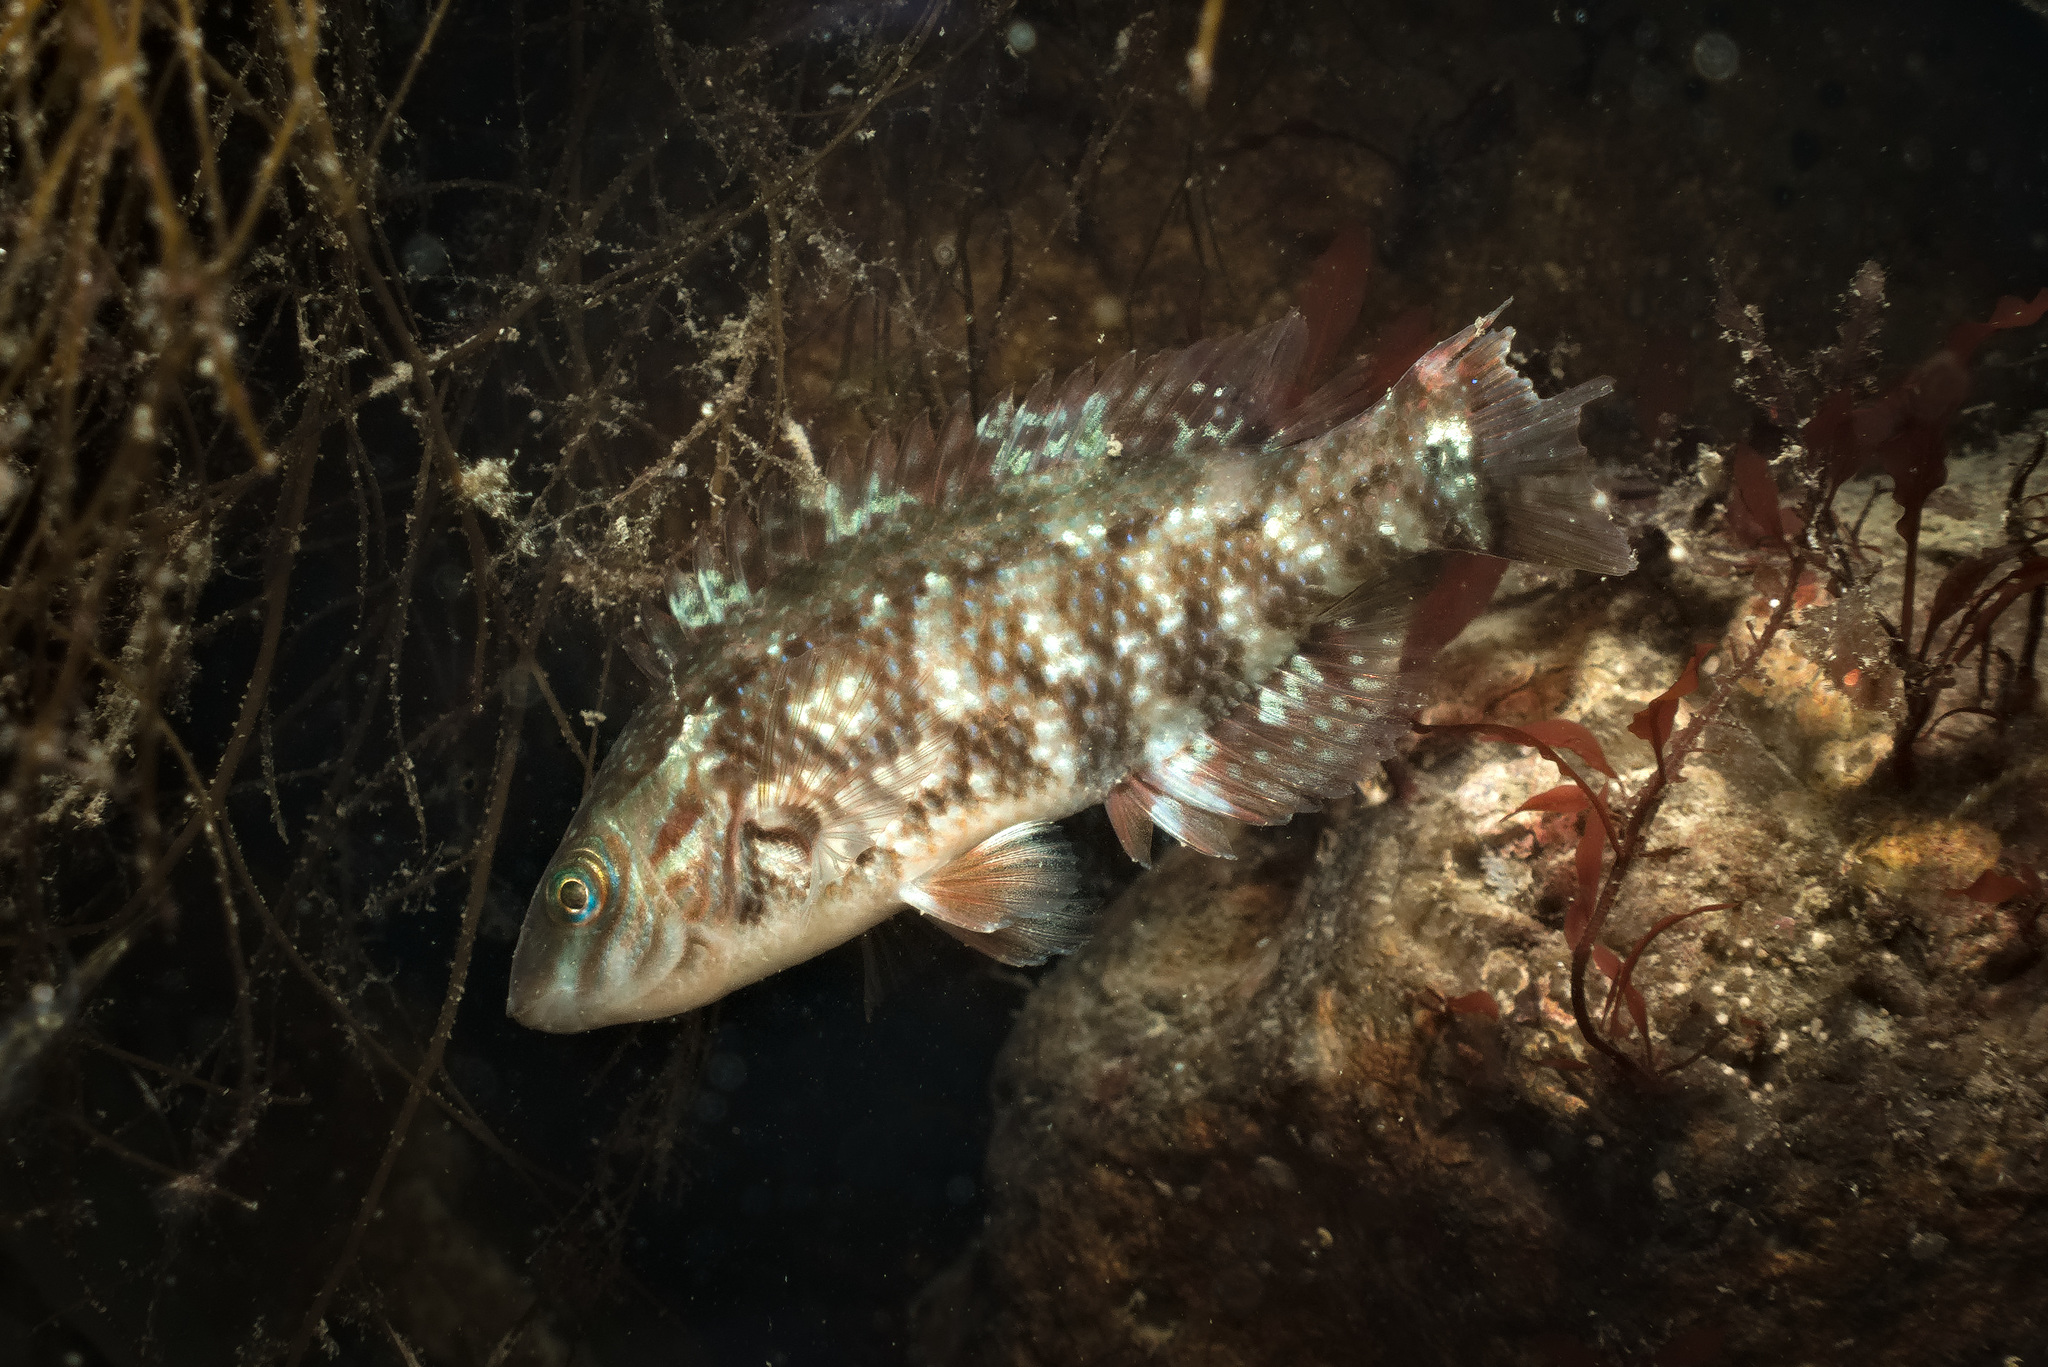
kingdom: Animalia
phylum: Chordata
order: Perciformes
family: Labridae
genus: Symphodus
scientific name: Symphodus melops
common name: Corkwing
